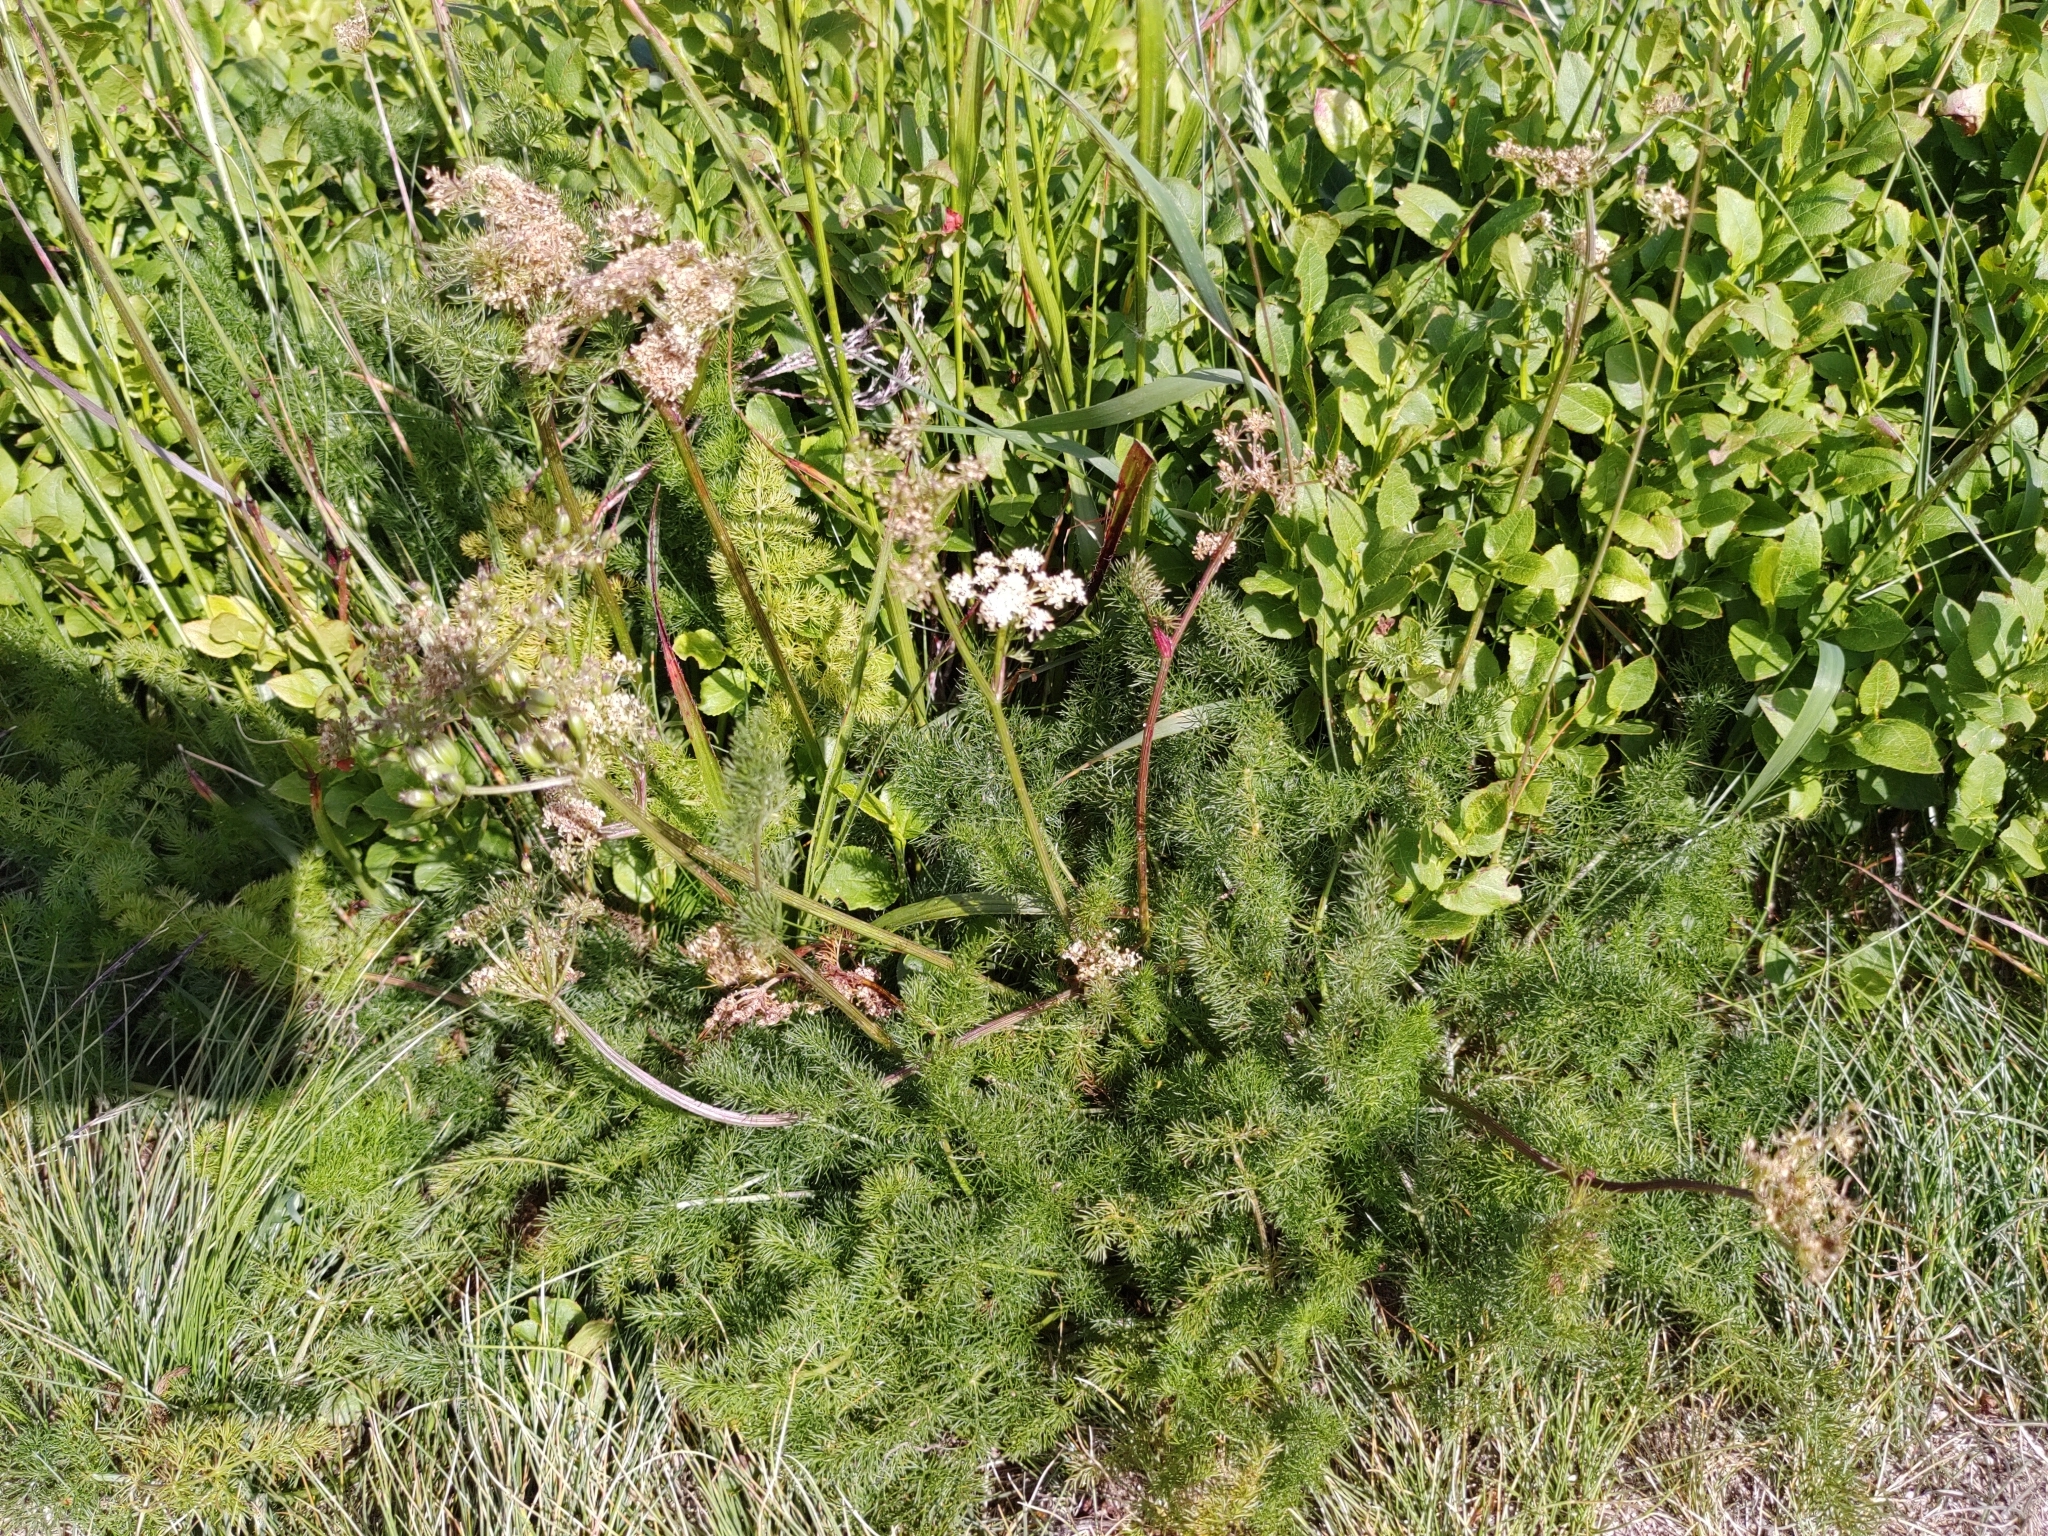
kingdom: Plantae
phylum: Tracheophyta
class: Magnoliopsida
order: Apiales
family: Apiaceae
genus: Meum
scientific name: Meum athamanticum
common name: Spignel
